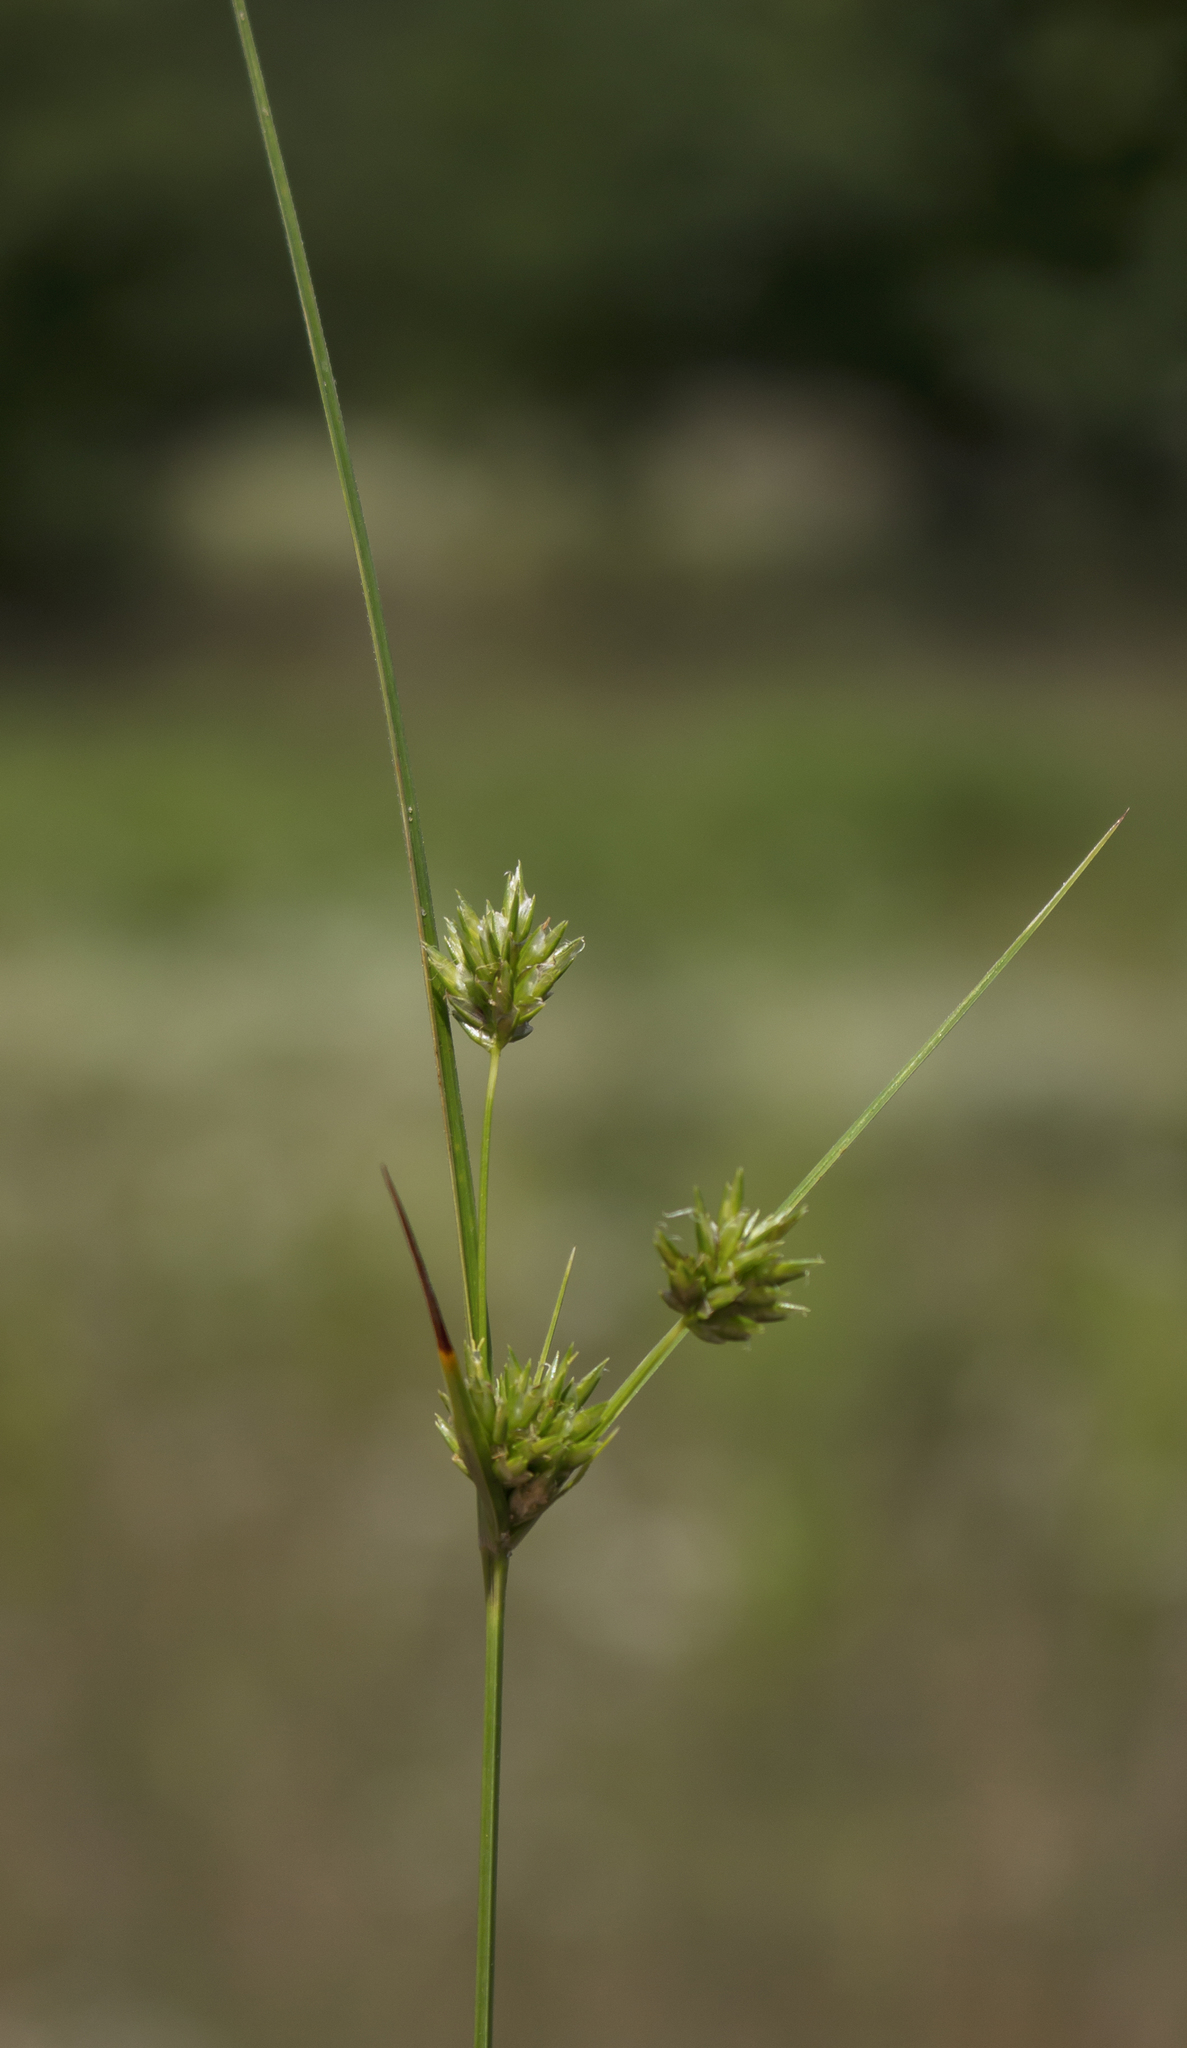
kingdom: Plantae
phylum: Tracheophyta
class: Liliopsida
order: Poales
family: Cyperaceae
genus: Cyperus
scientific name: Cyperus schweinitzii
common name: Schweinitz's cyperus
